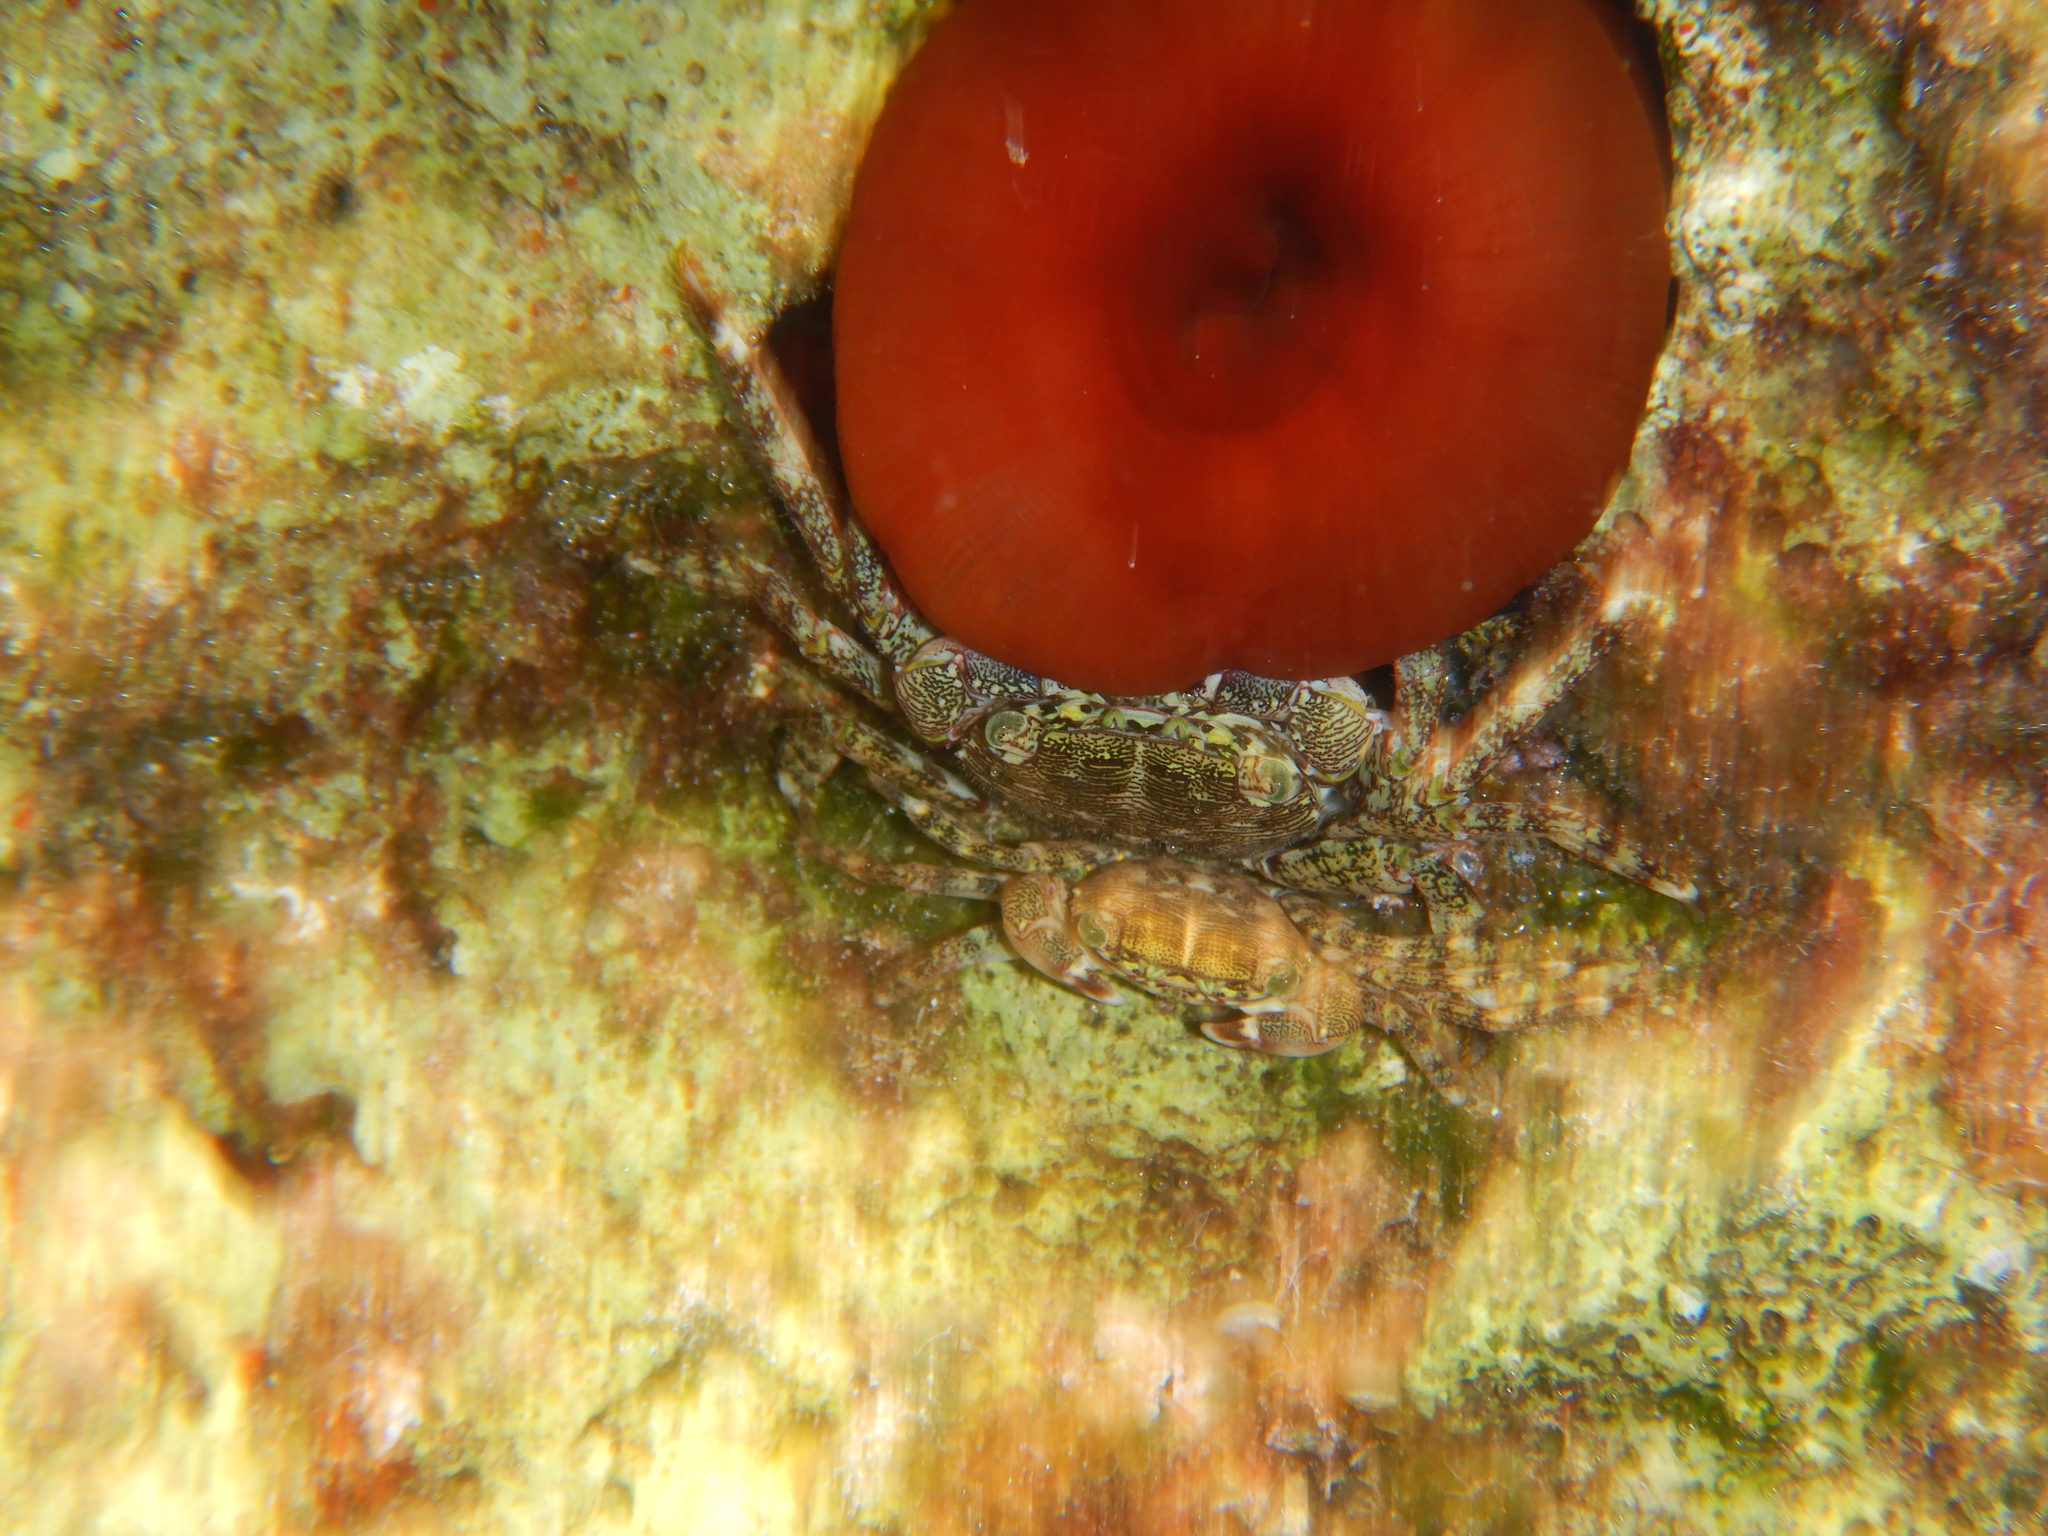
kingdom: Animalia
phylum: Cnidaria
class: Anthozoa
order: Actiniaria
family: Actiniidae
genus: Actinia
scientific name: Actinia mediterranea
